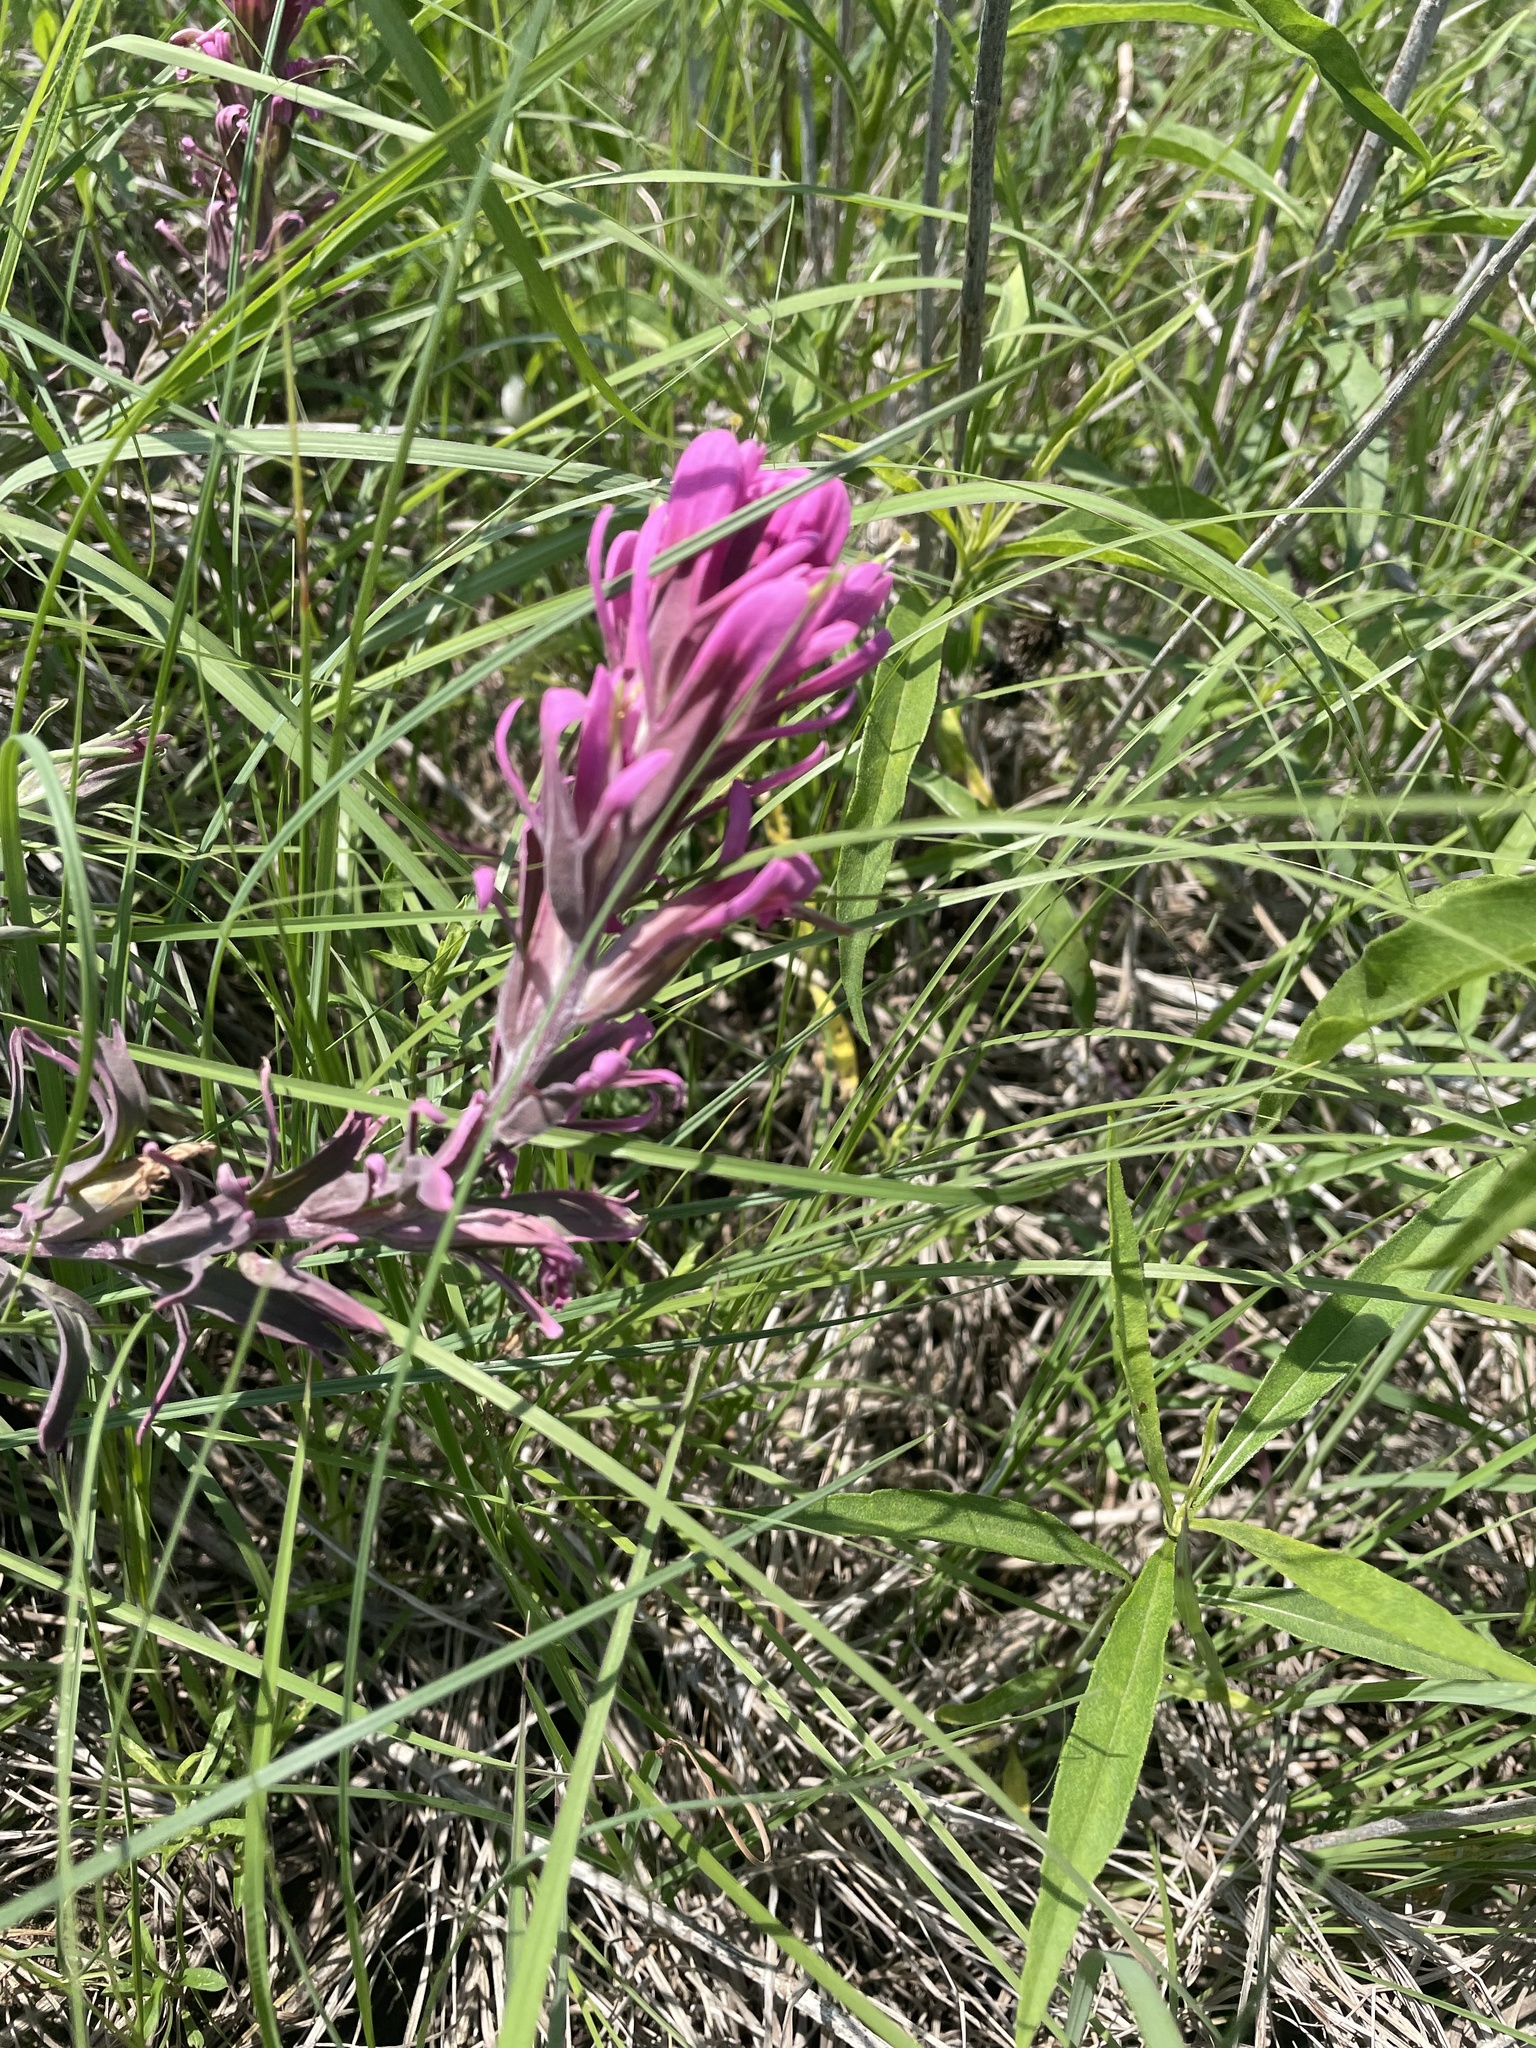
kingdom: Plantae
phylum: Tracheophyta
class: Magnoliopsida
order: Lamiales
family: Orobanchaceae
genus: Castilleja
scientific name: Castilleja purpurea
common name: Plains paintbrush
